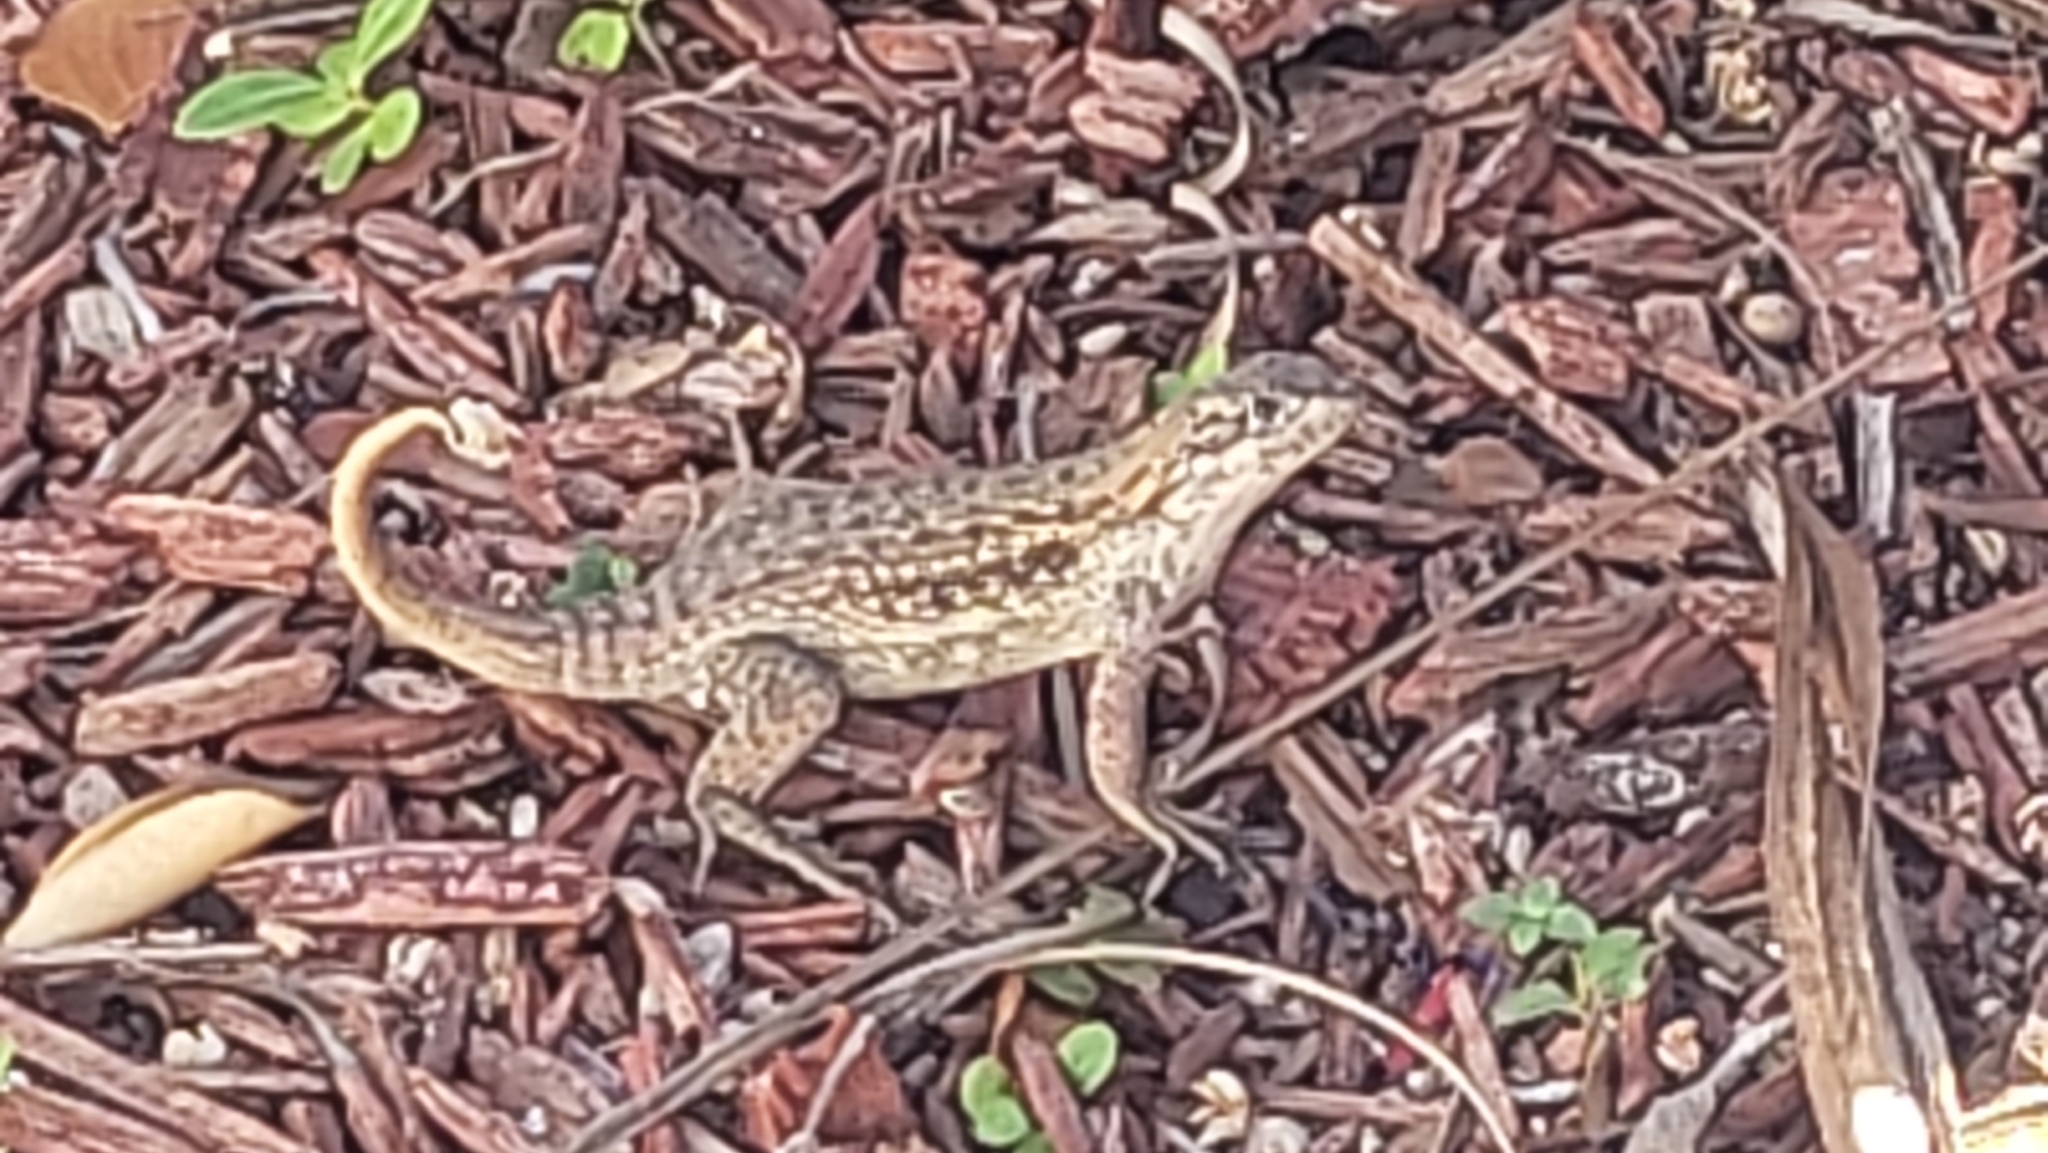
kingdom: Animalia
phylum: Chordata
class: Squamata
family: Leiocephalidae
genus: Leiocephalus
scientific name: Leiocephalus carinatus
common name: Northern curly-tailed lizard
